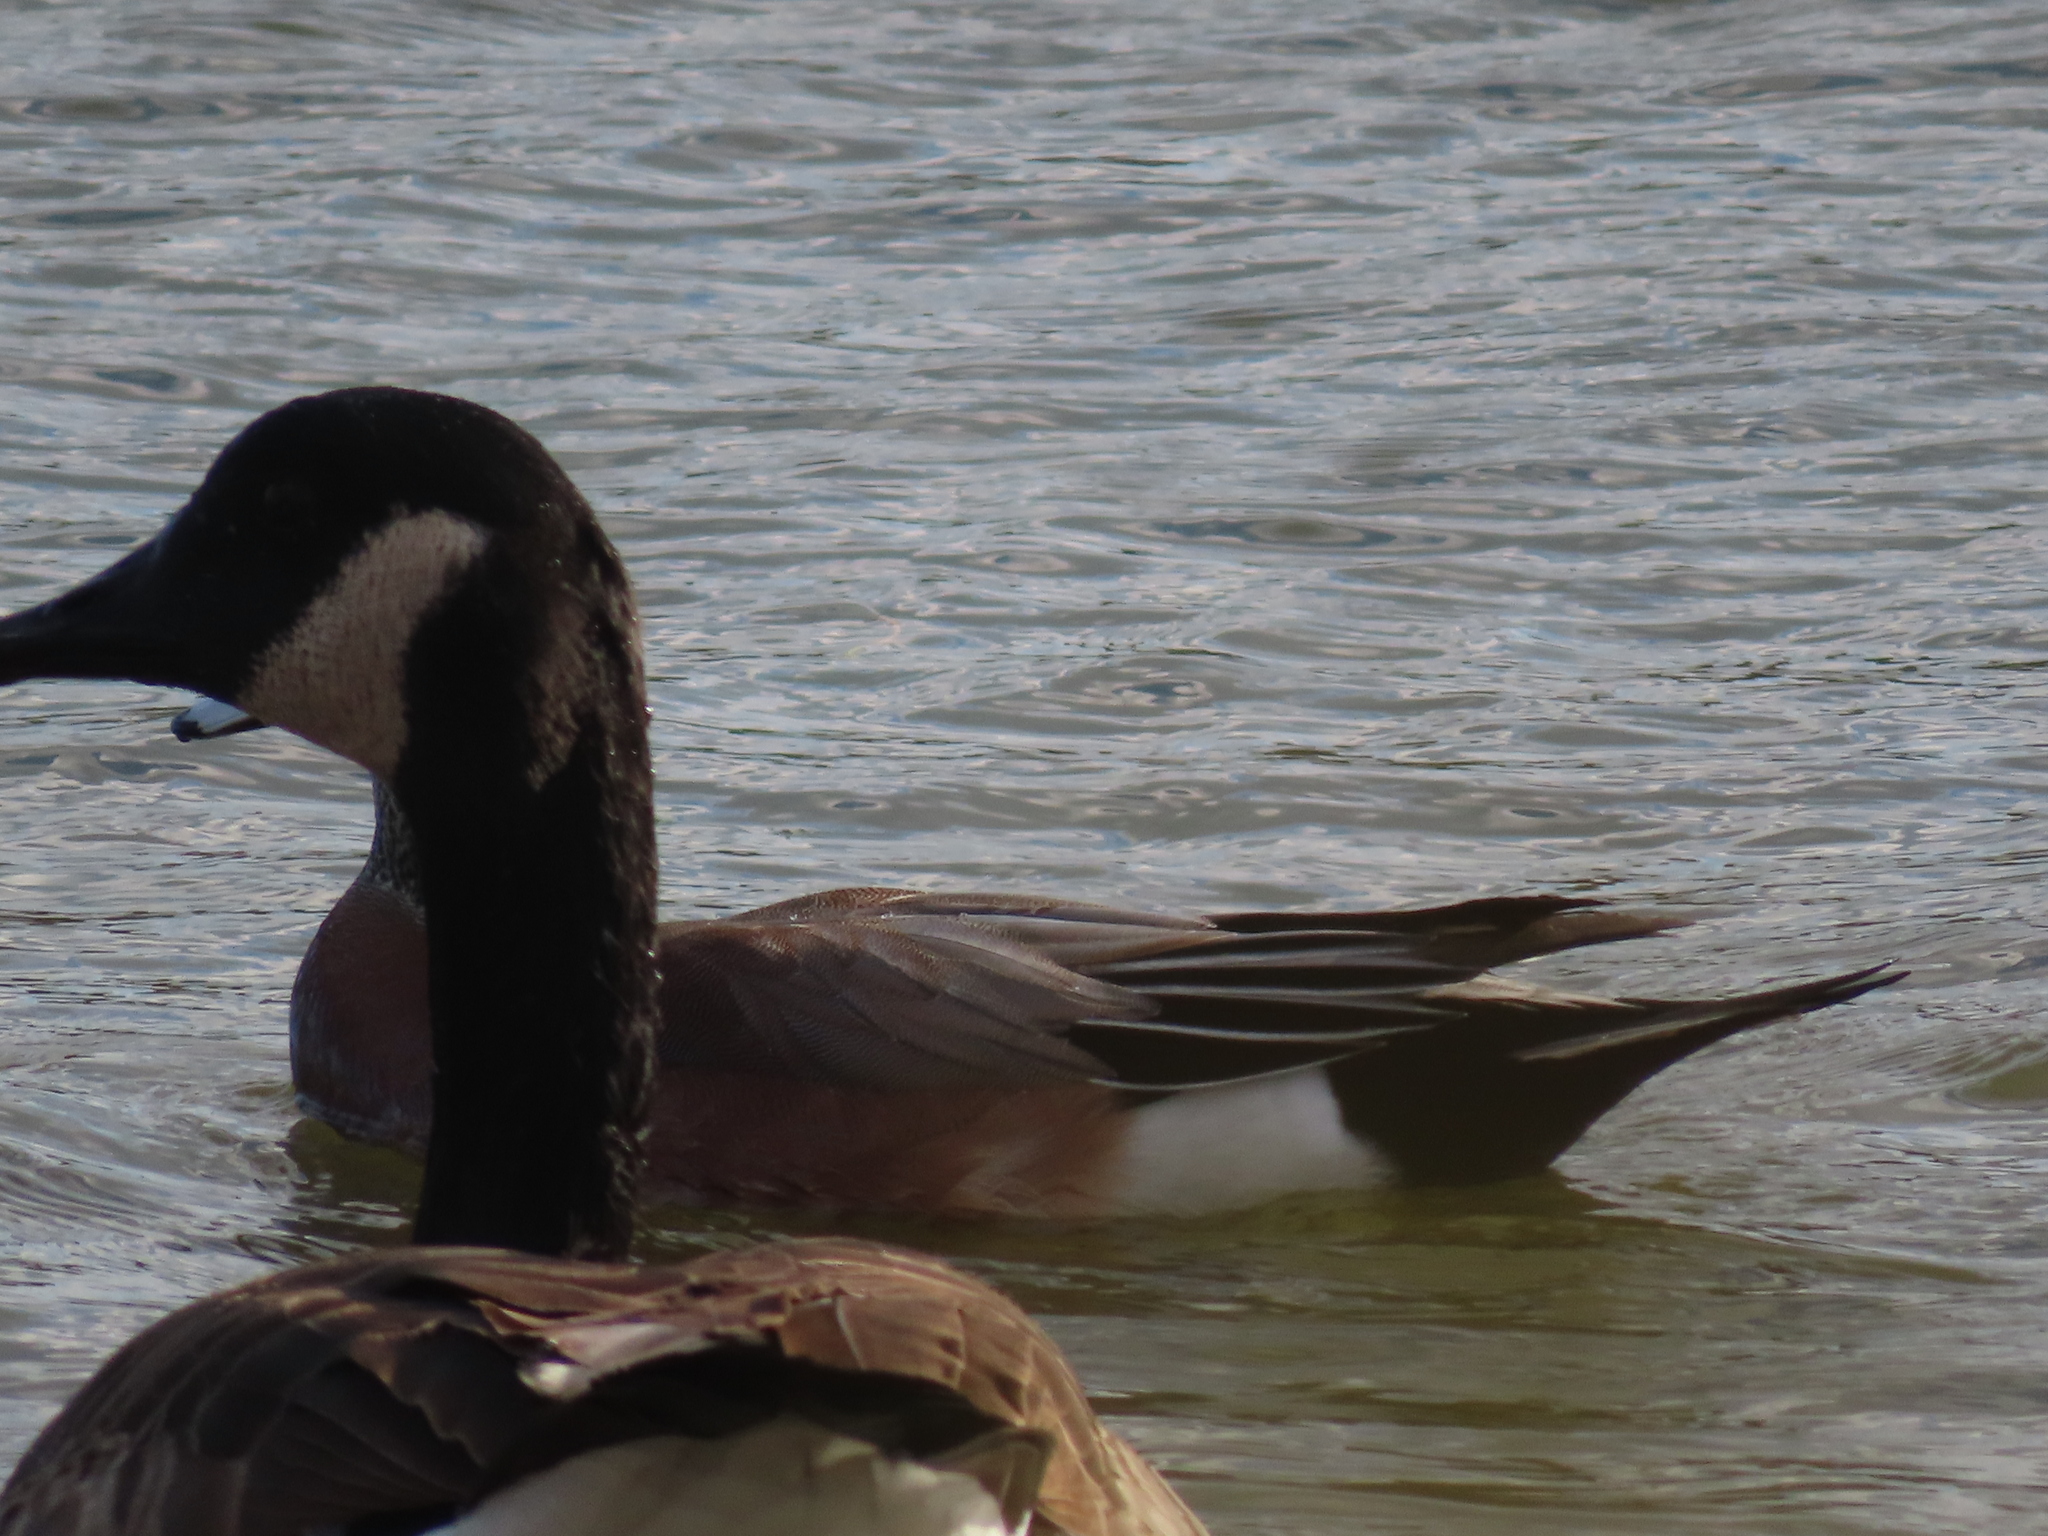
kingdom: Animalia
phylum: Chordata
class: Aves
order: Anseriformes
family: Anatidae
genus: Branta
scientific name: Branta canadensis
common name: Canada goose
